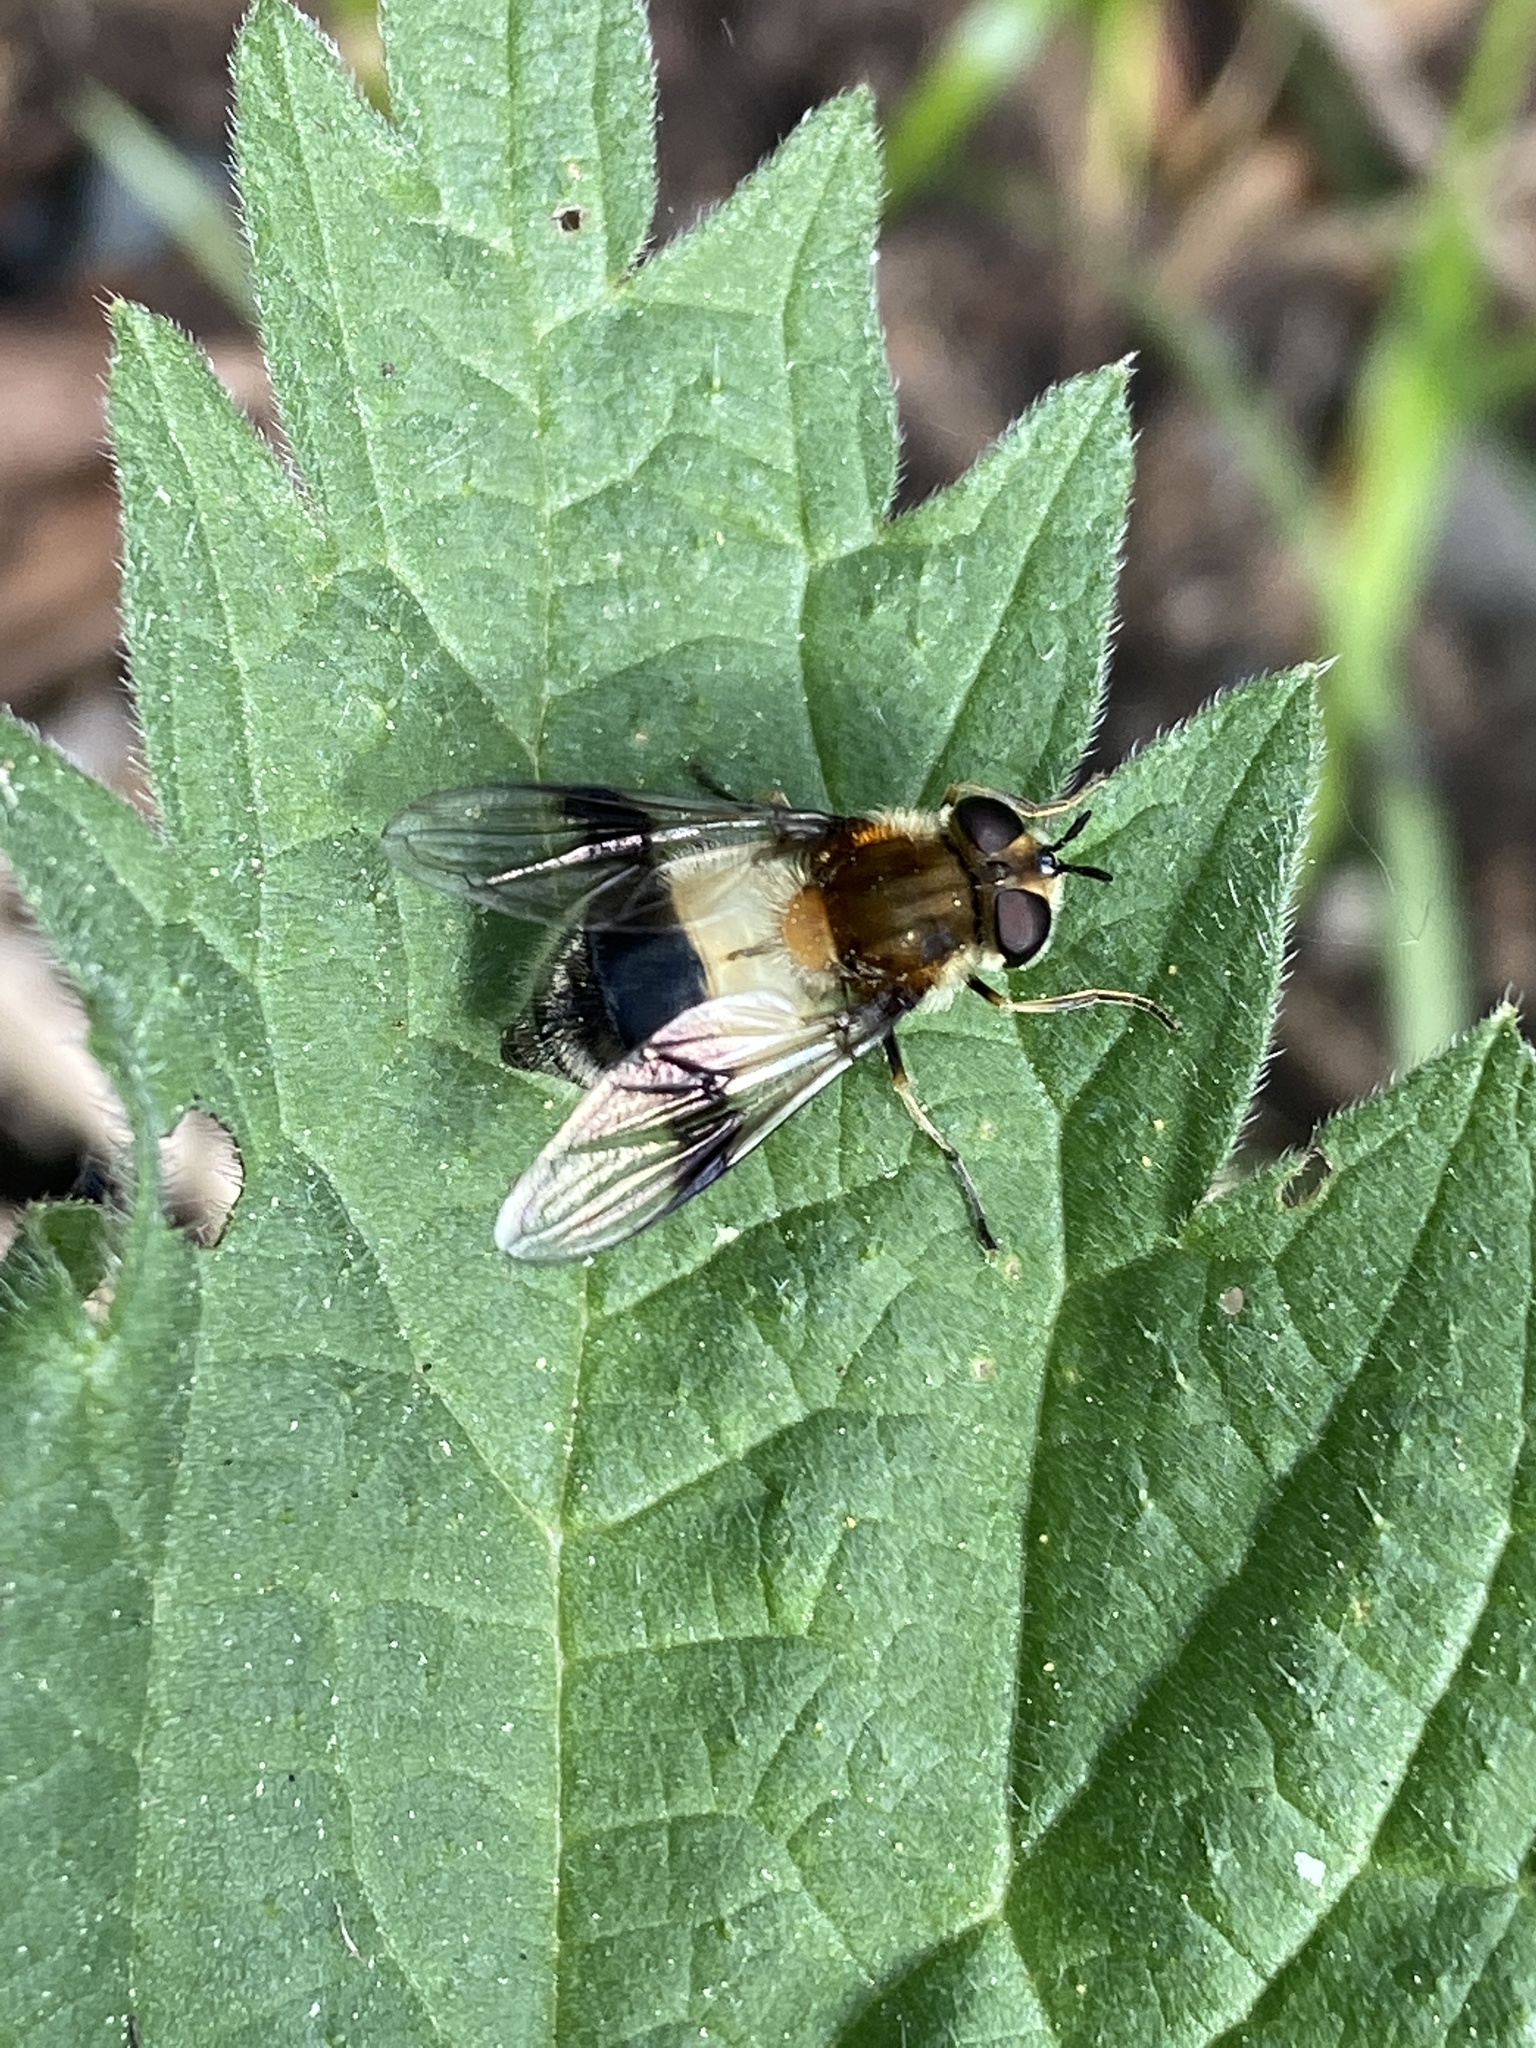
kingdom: Animalia
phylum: Arthropoda
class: Insecta
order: Diptera
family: Syrphidae
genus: Leucozona
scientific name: Leucozona lucorum
